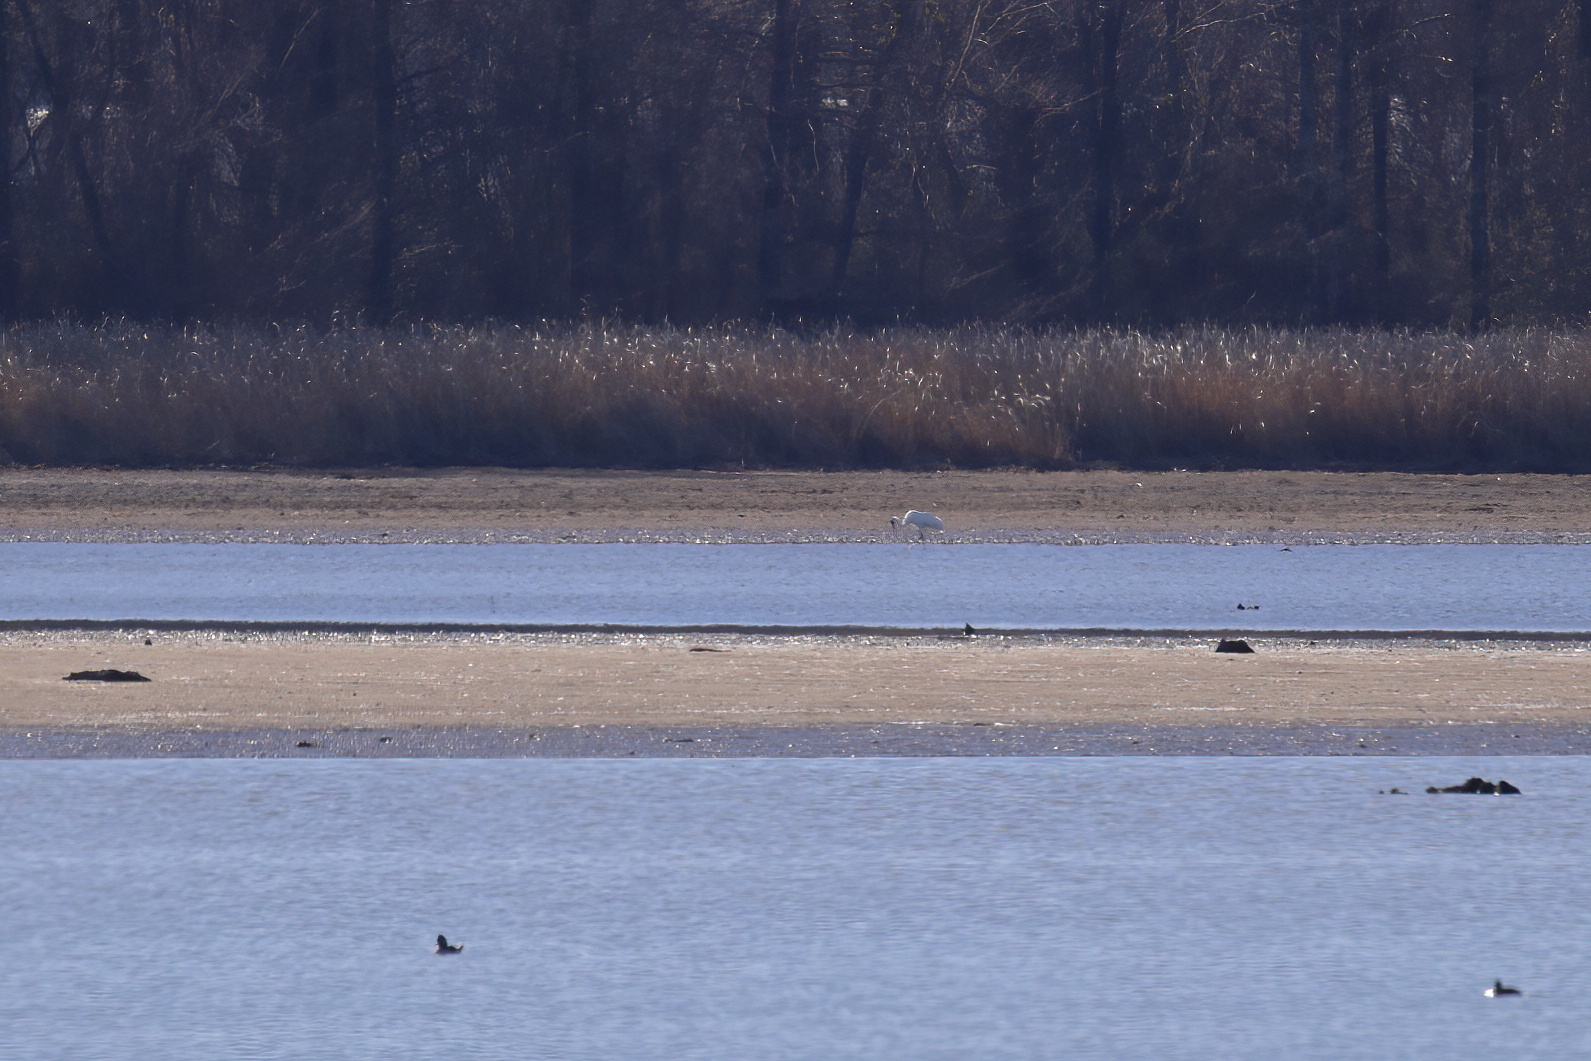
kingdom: Animalia
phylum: Chordata
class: Aves
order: Gruiformes
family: Gruidae
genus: Grus
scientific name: Grus americana
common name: Whooping crane
